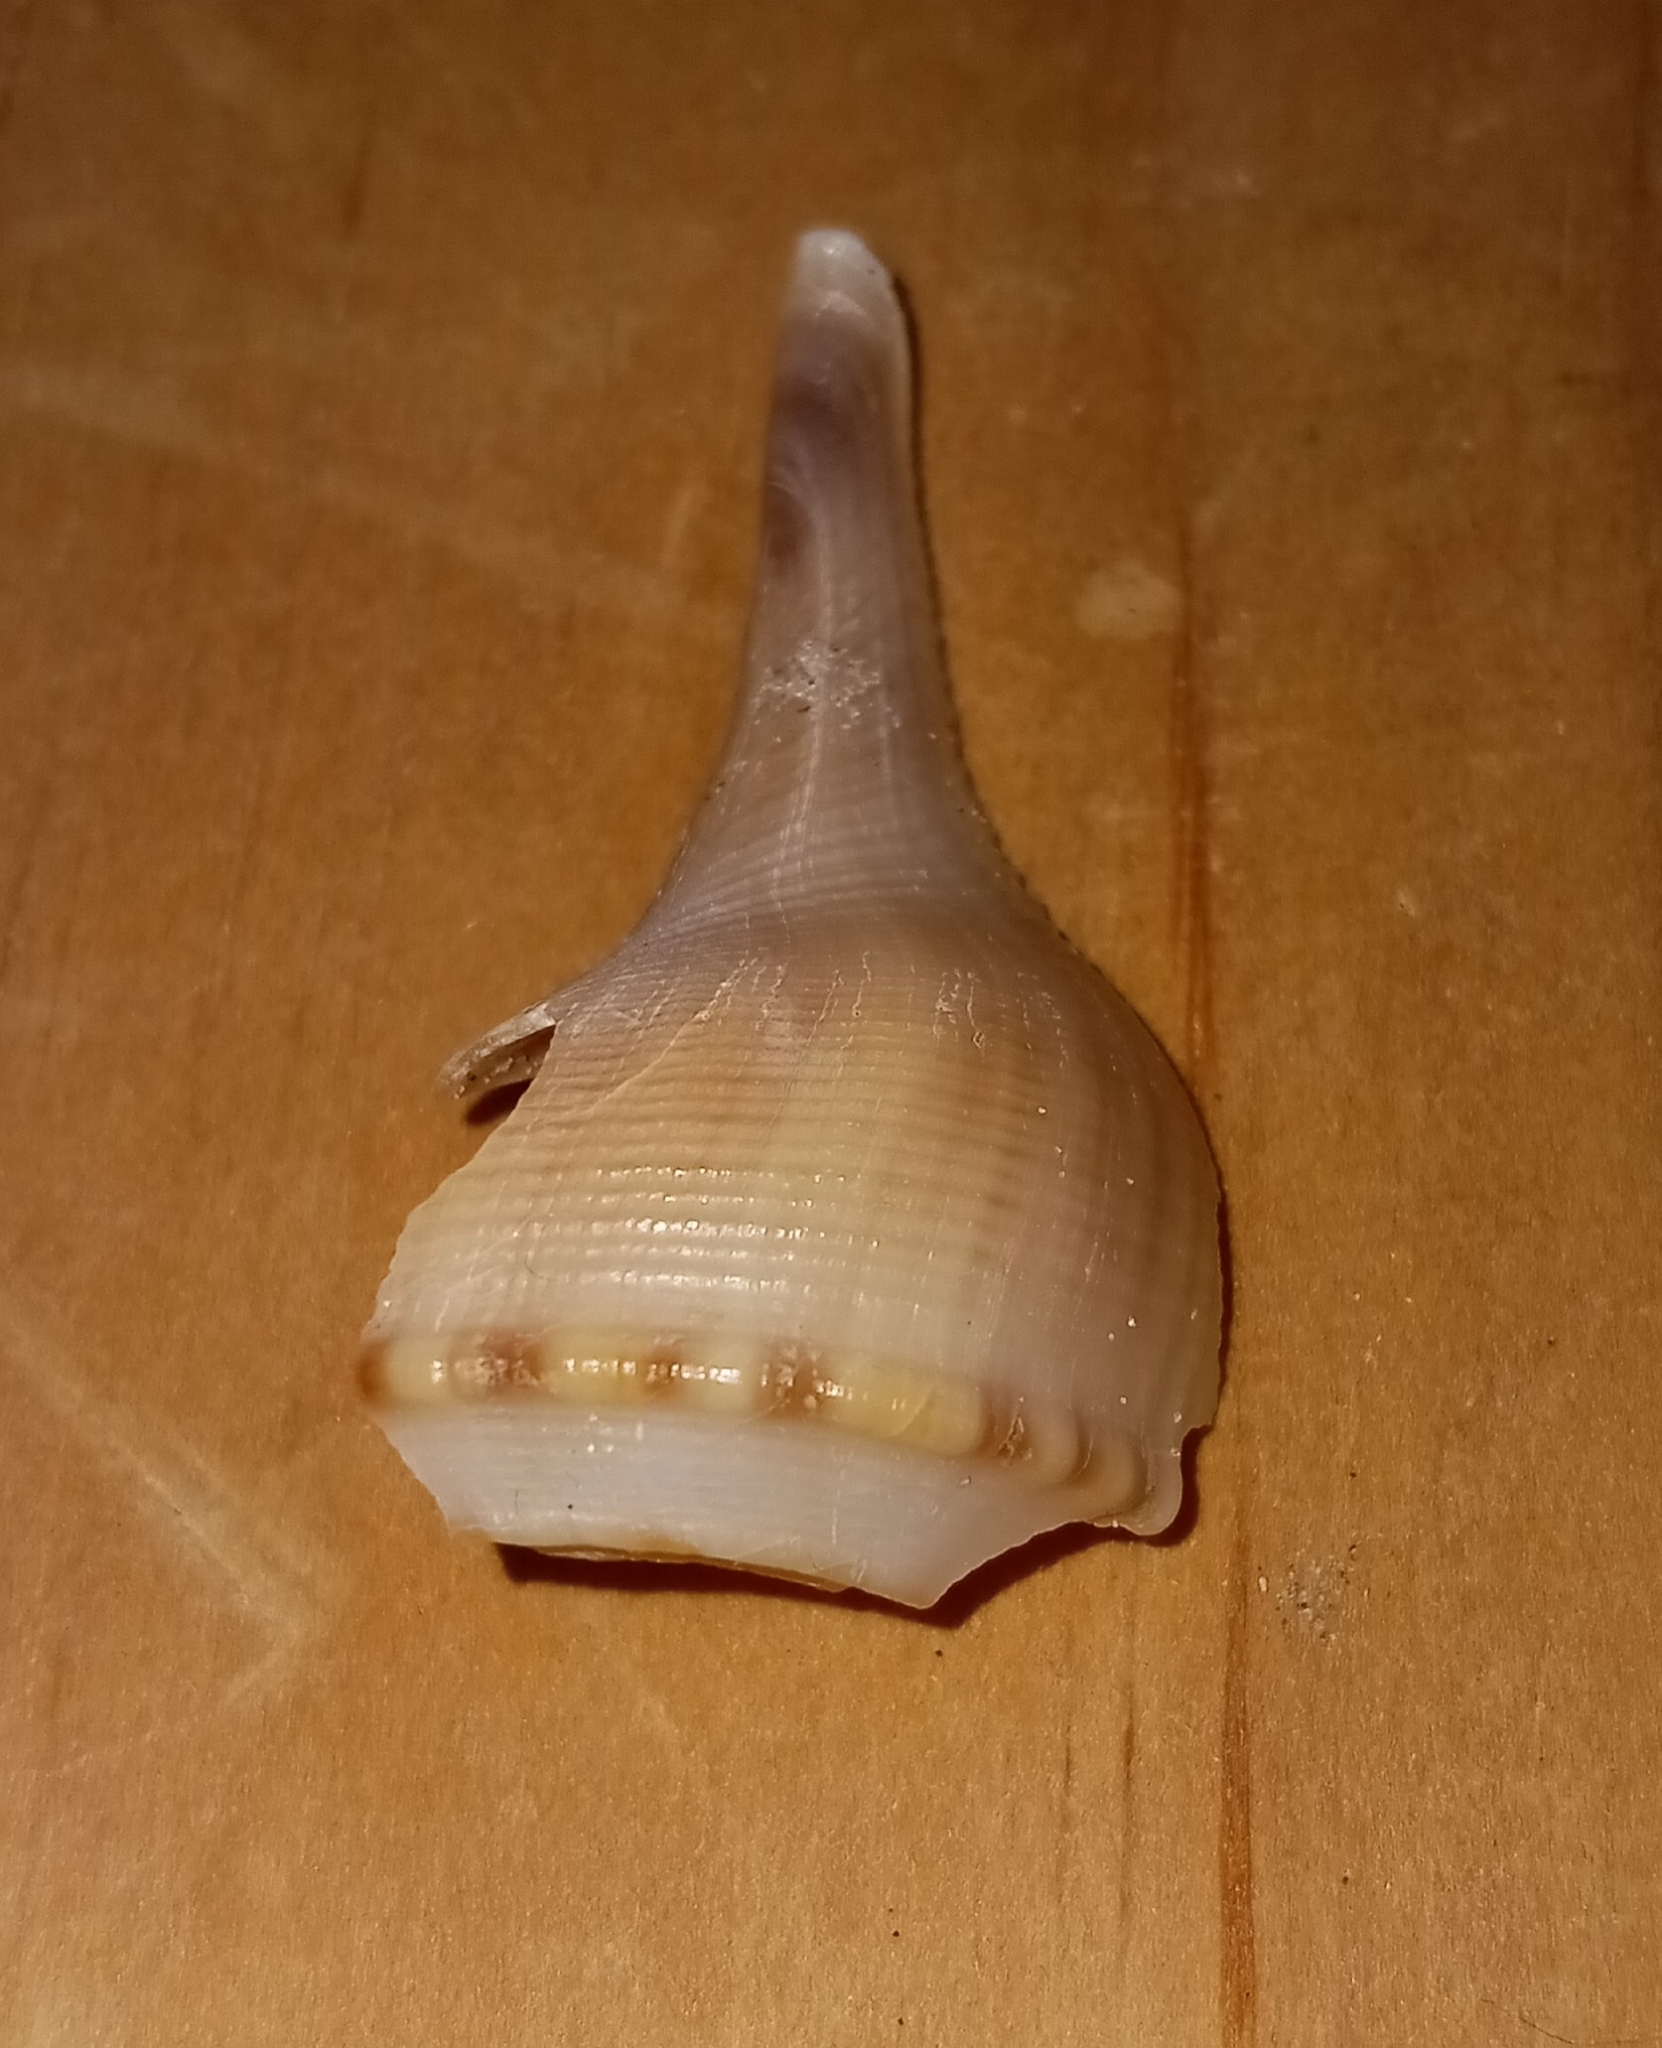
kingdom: Animalia
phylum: Mollusca
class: Gastropoda
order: Neogastropoda
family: Busyconidae
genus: Busycotypus
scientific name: Busycotypus canaliculatus
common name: Channeled whelk
